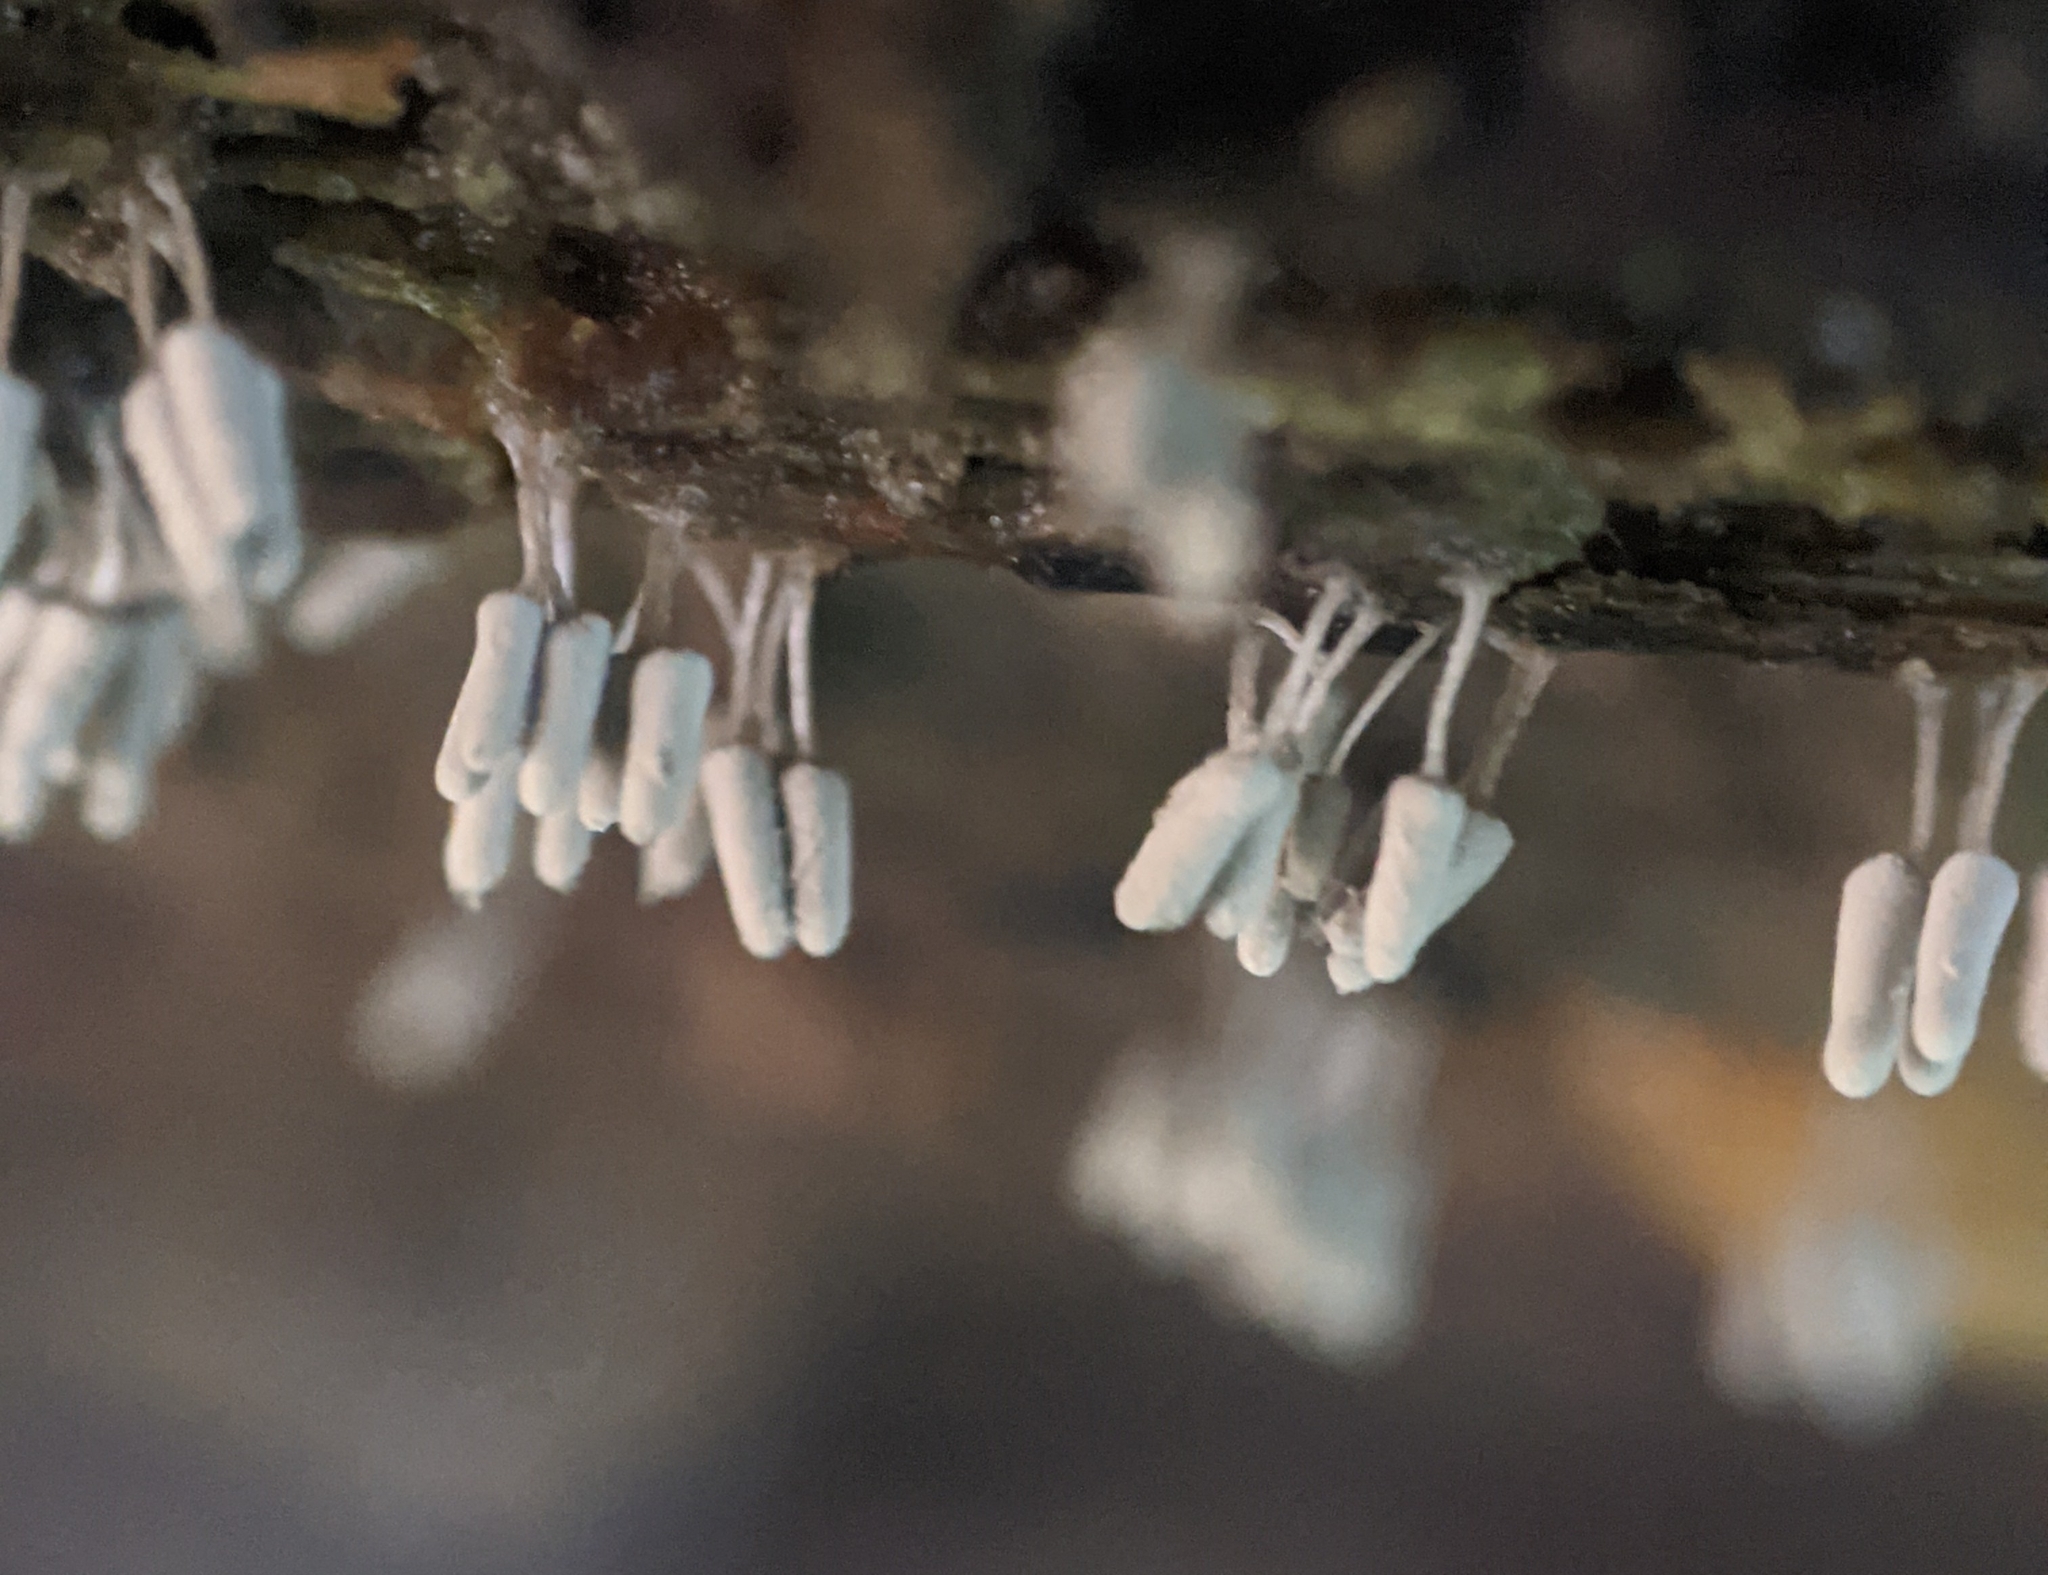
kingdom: Protozoa
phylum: Mycetozoa
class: Myxomycetes
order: Trichiales
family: Arcyriaceae
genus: Arcyria
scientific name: Arcyria cinerea
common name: White carnival candy slime mold
